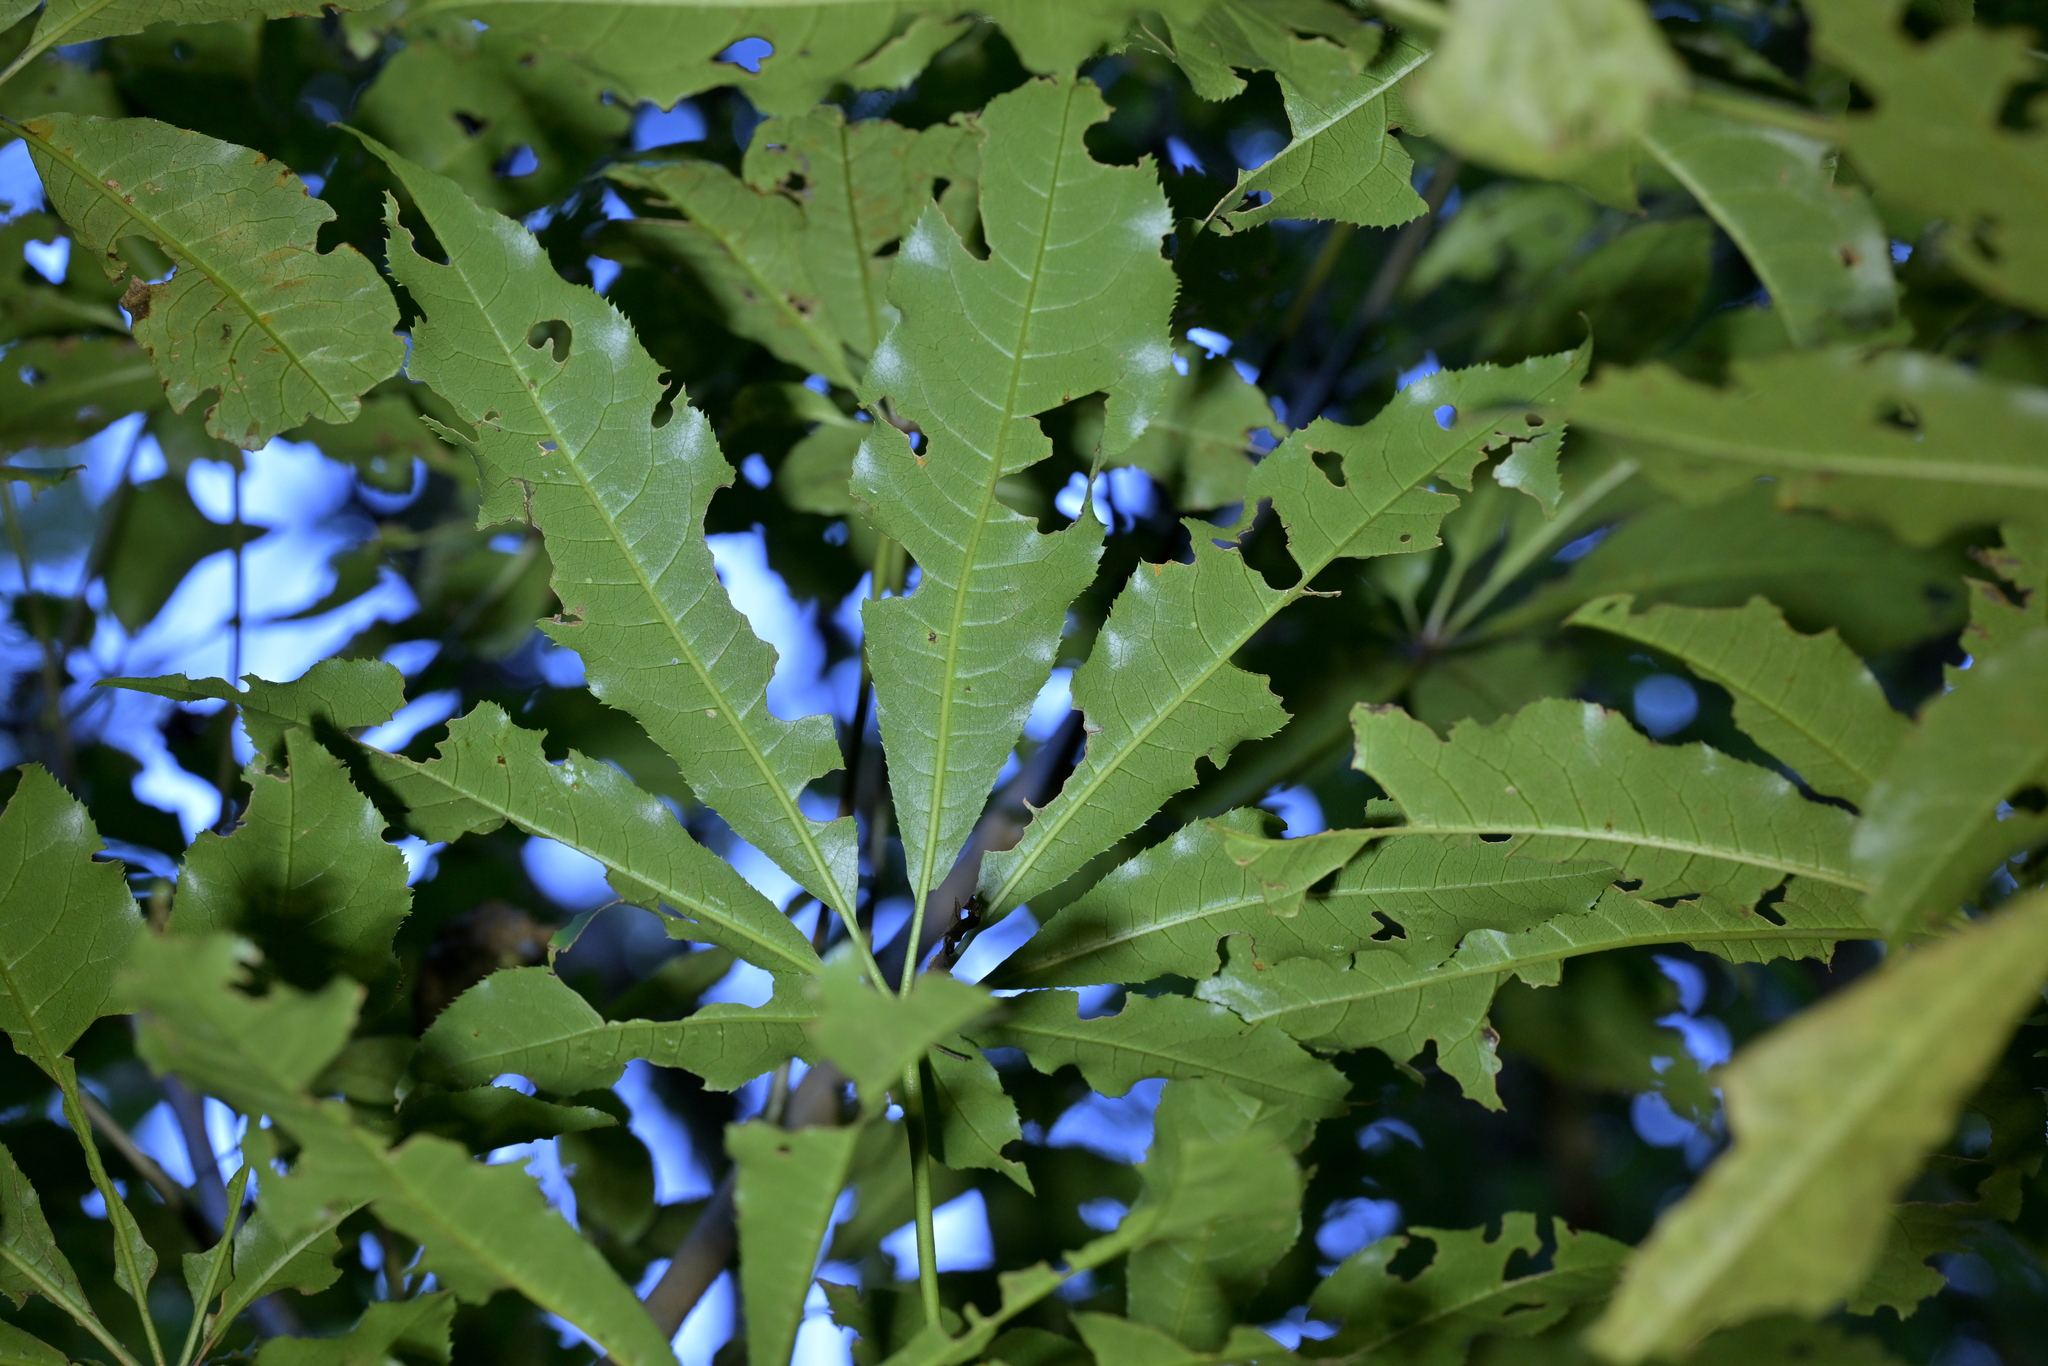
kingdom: Plantae
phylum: Tracheophyta
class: Magnoliopsida
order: Apiales
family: Araliaceae
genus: Schefflera
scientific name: Schefflera digitata
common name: Pate
